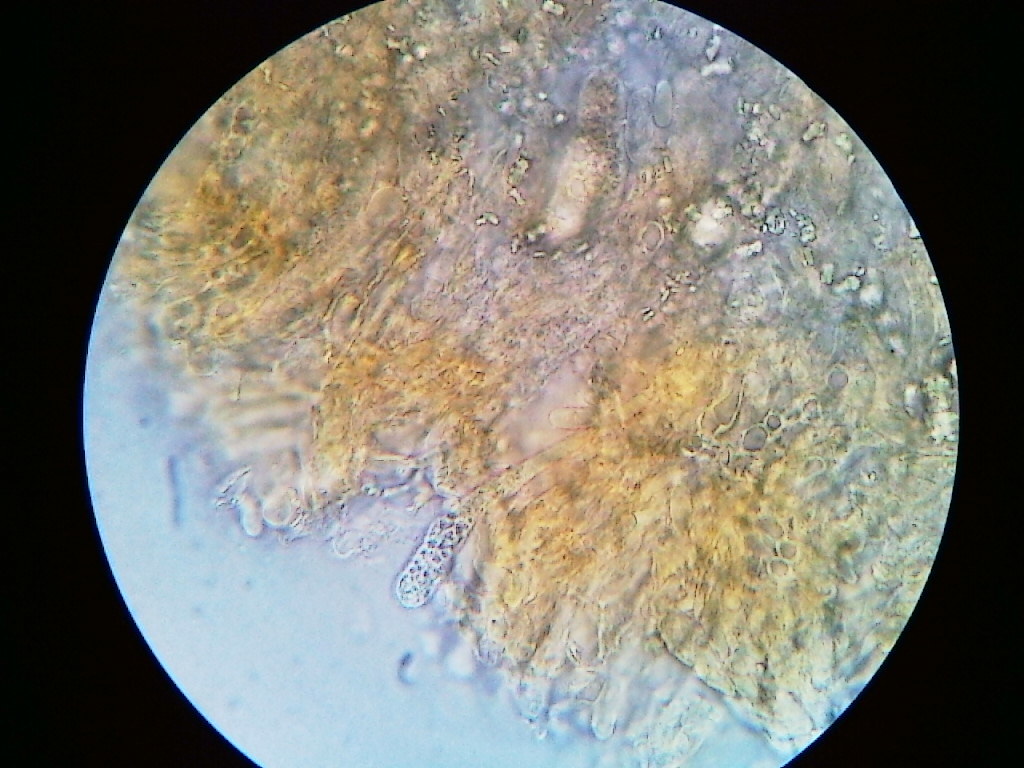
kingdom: Fungi
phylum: Basidiomycota
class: Agaricomycetes
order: Russulales
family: Peniophoraceae
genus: Peniophora
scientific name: Peniophora laurentii
